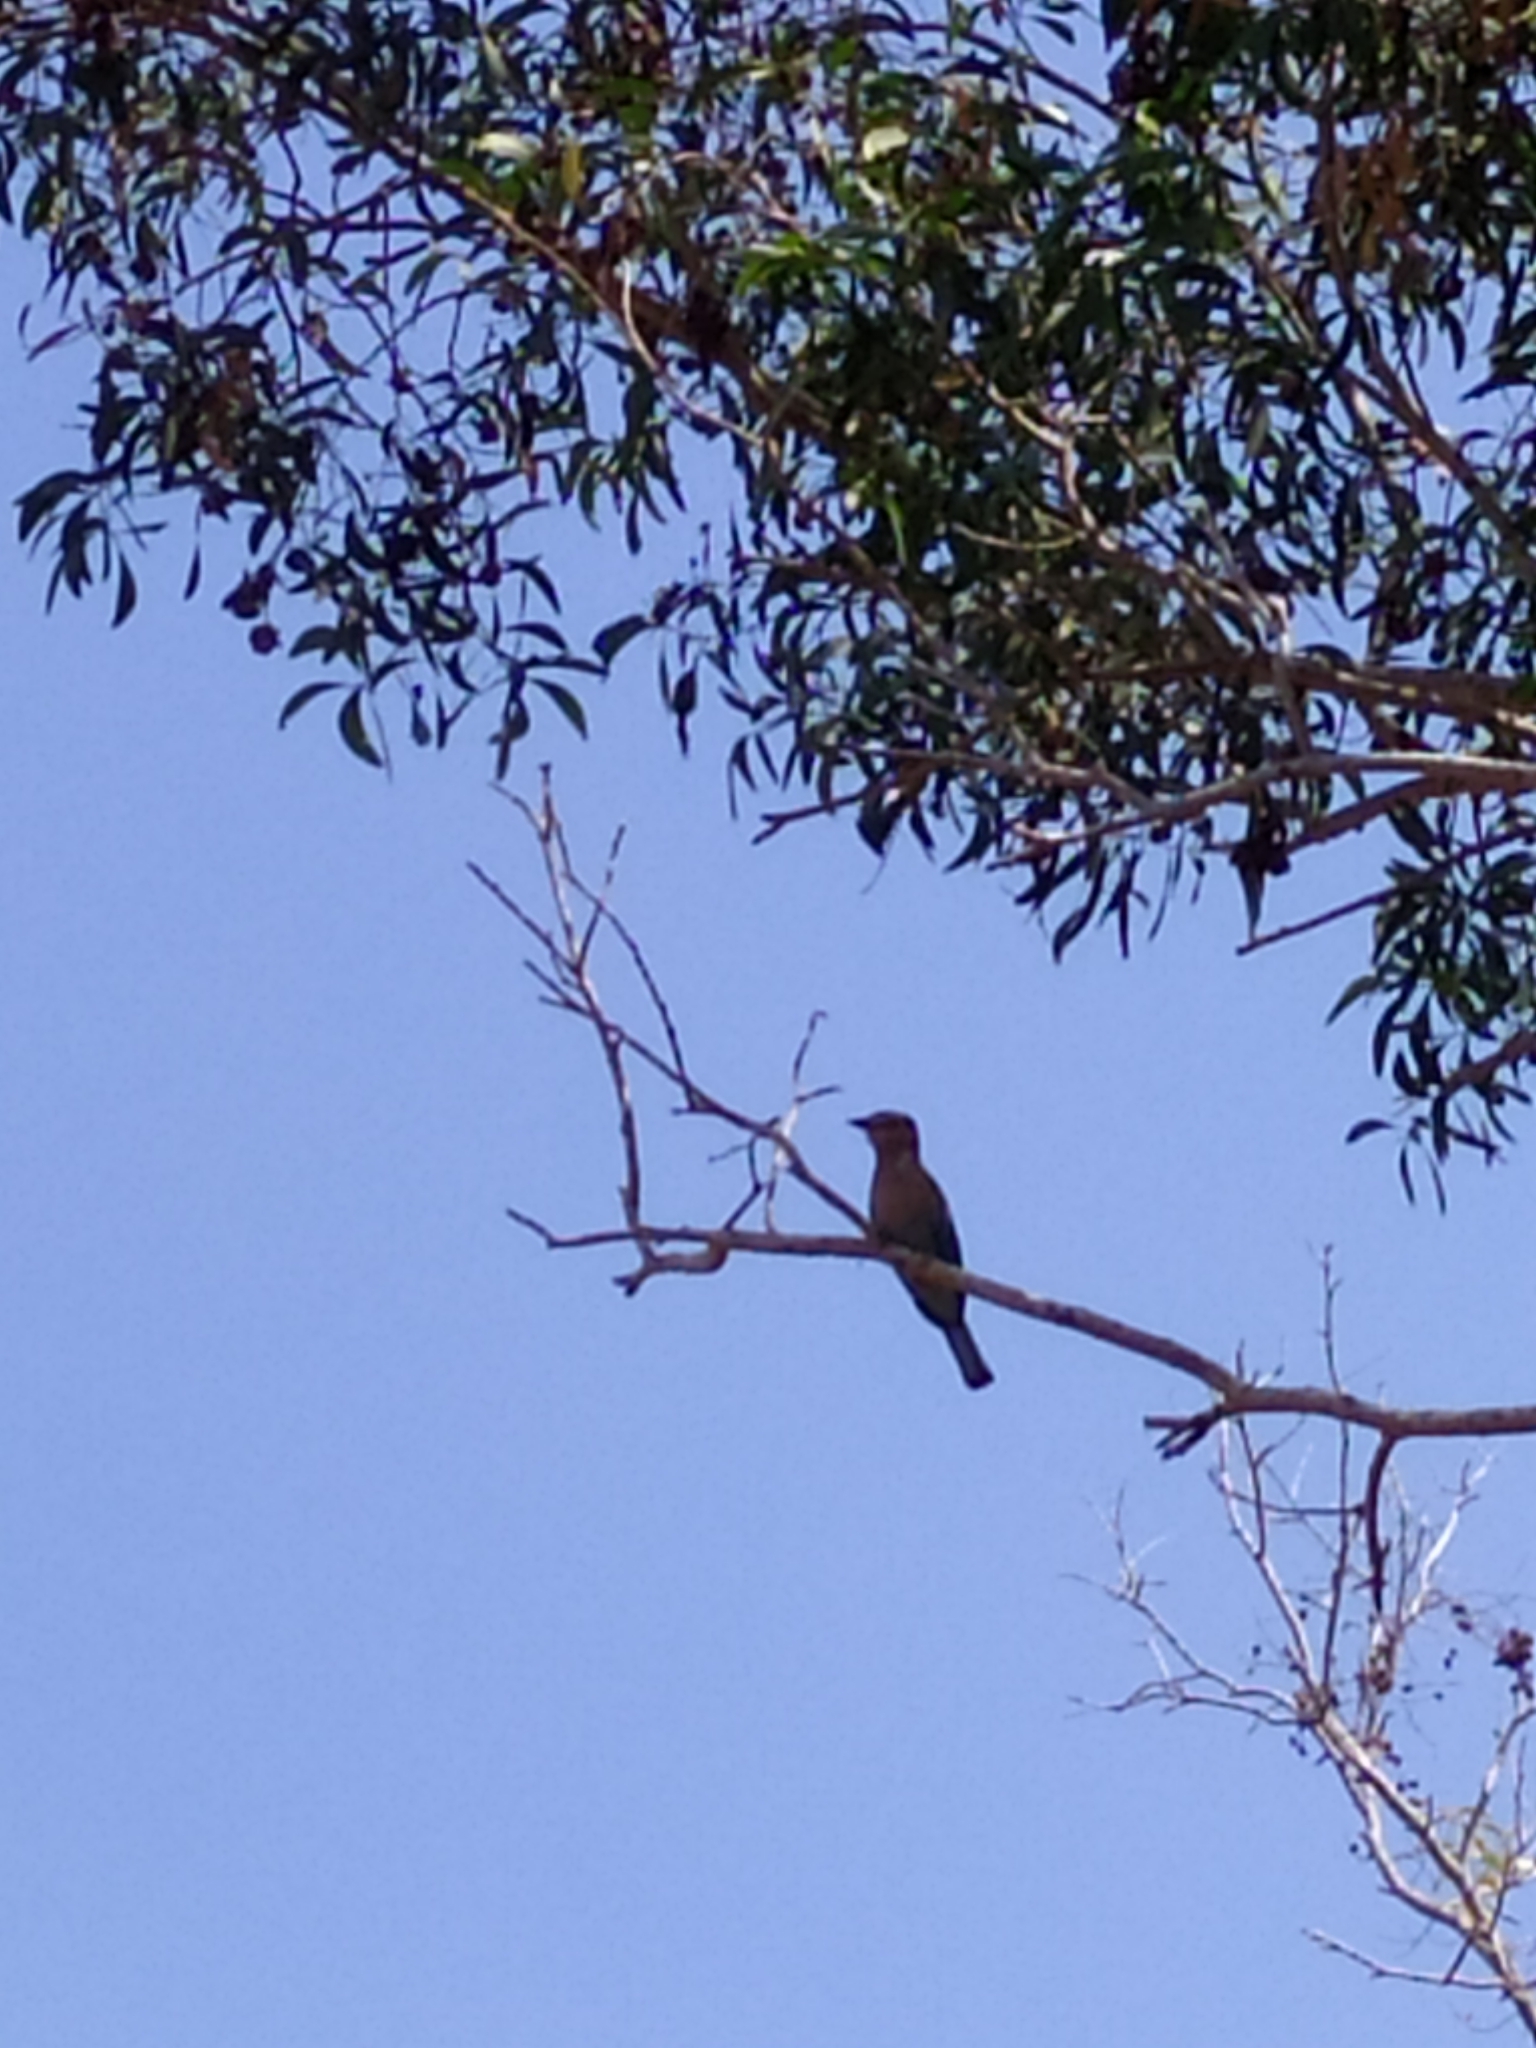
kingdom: Animalia
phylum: Chordata
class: Aves
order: Coraciiformes
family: Coraciidae
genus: Coracias
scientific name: Coracias benghalensis
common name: Indian roller
